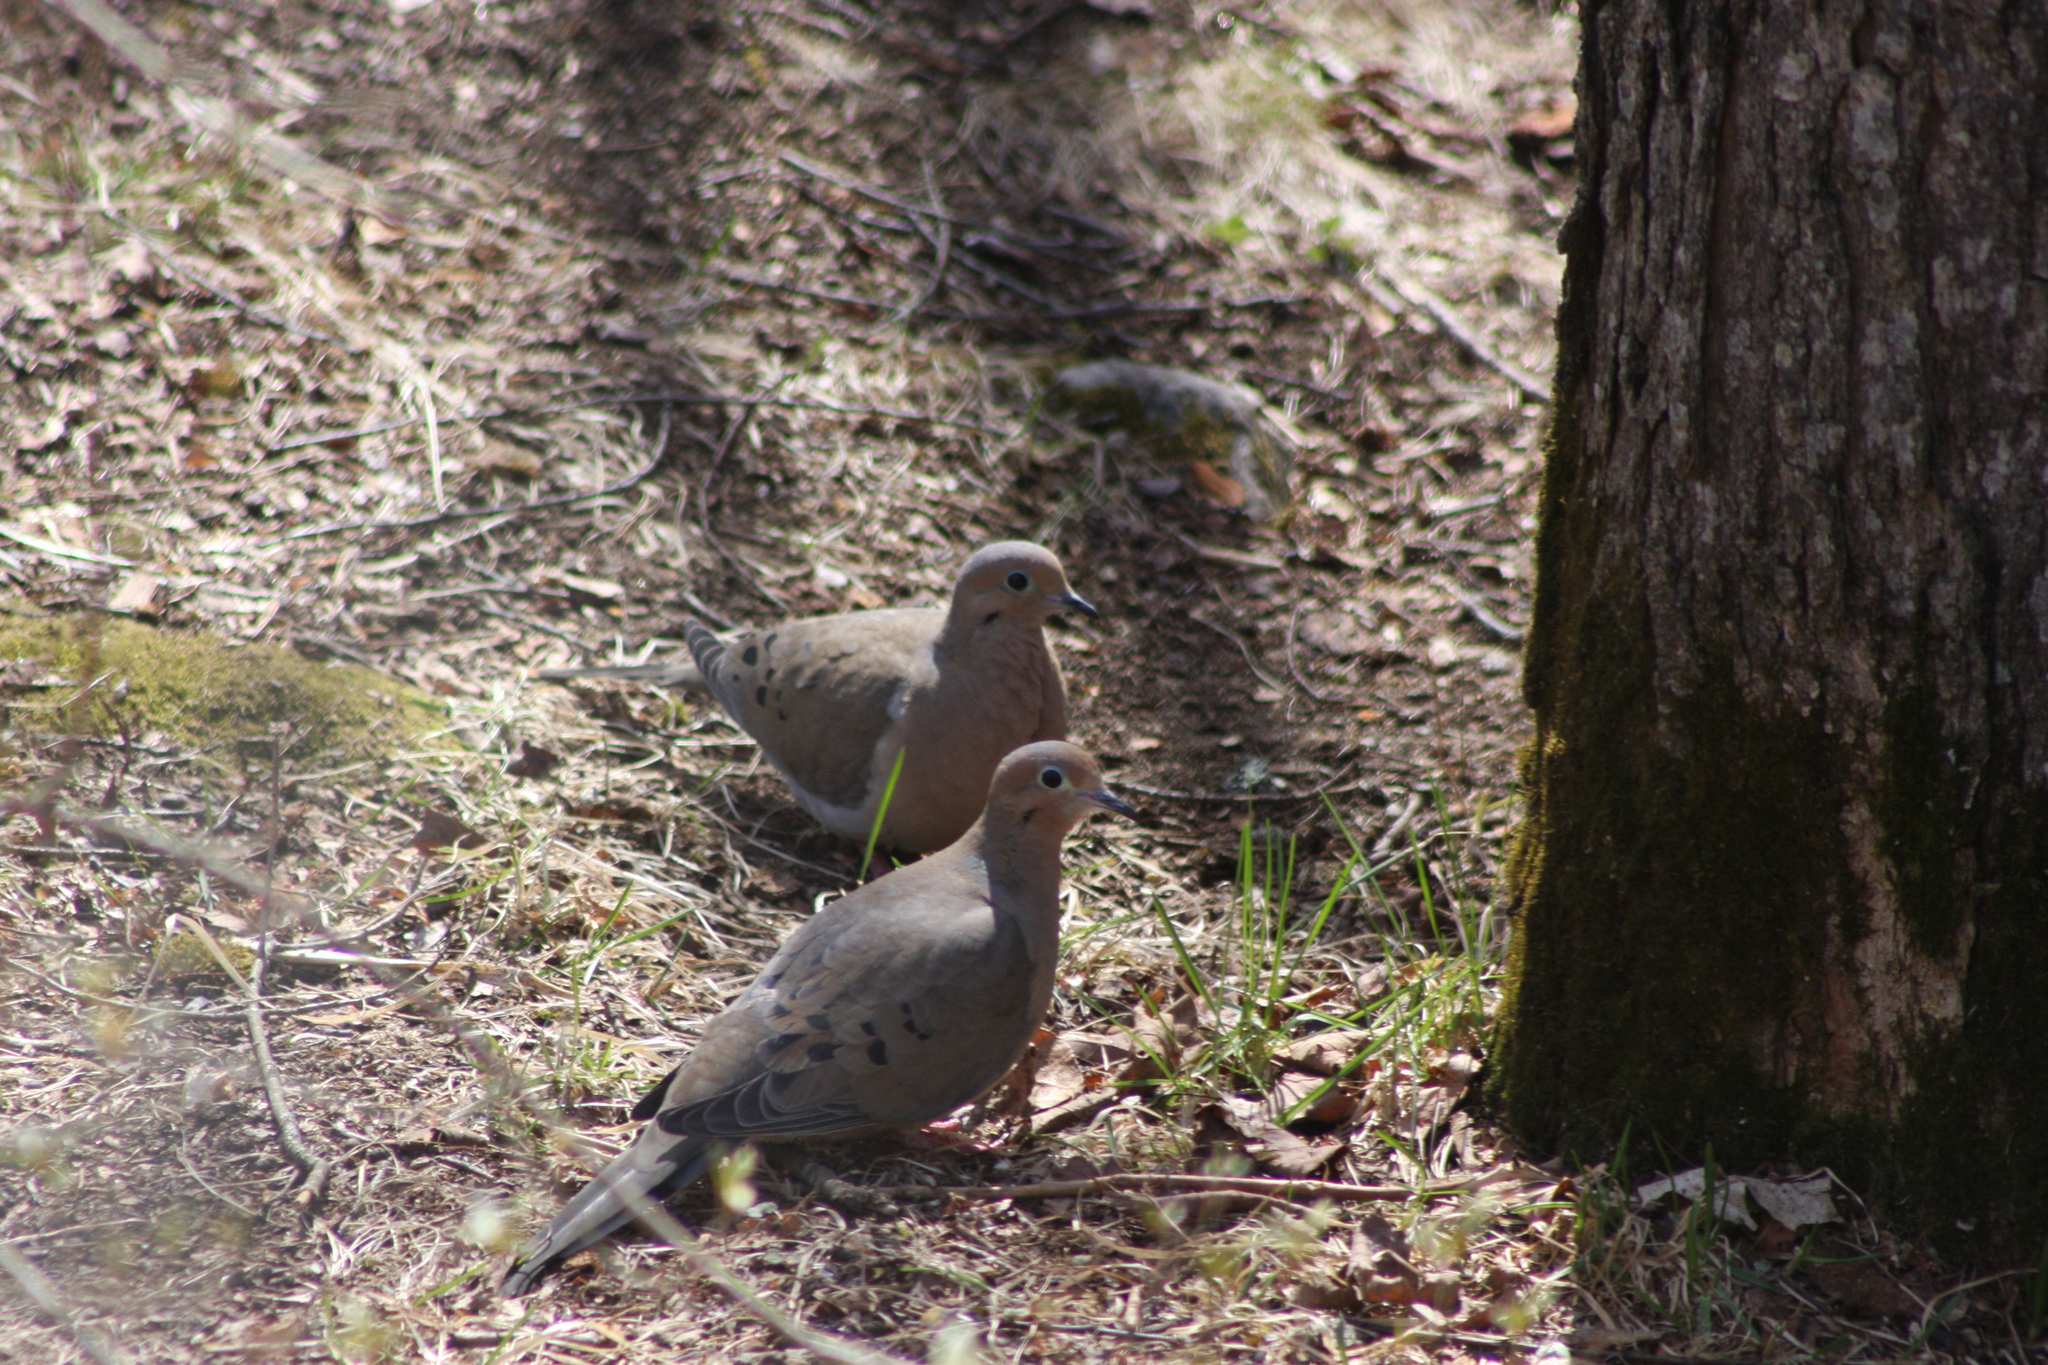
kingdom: Animalia
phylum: Chordata
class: Aves
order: Columbiformes
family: Columbidae
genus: Zenaida
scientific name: Zenaida macroura
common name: Mourning dove
